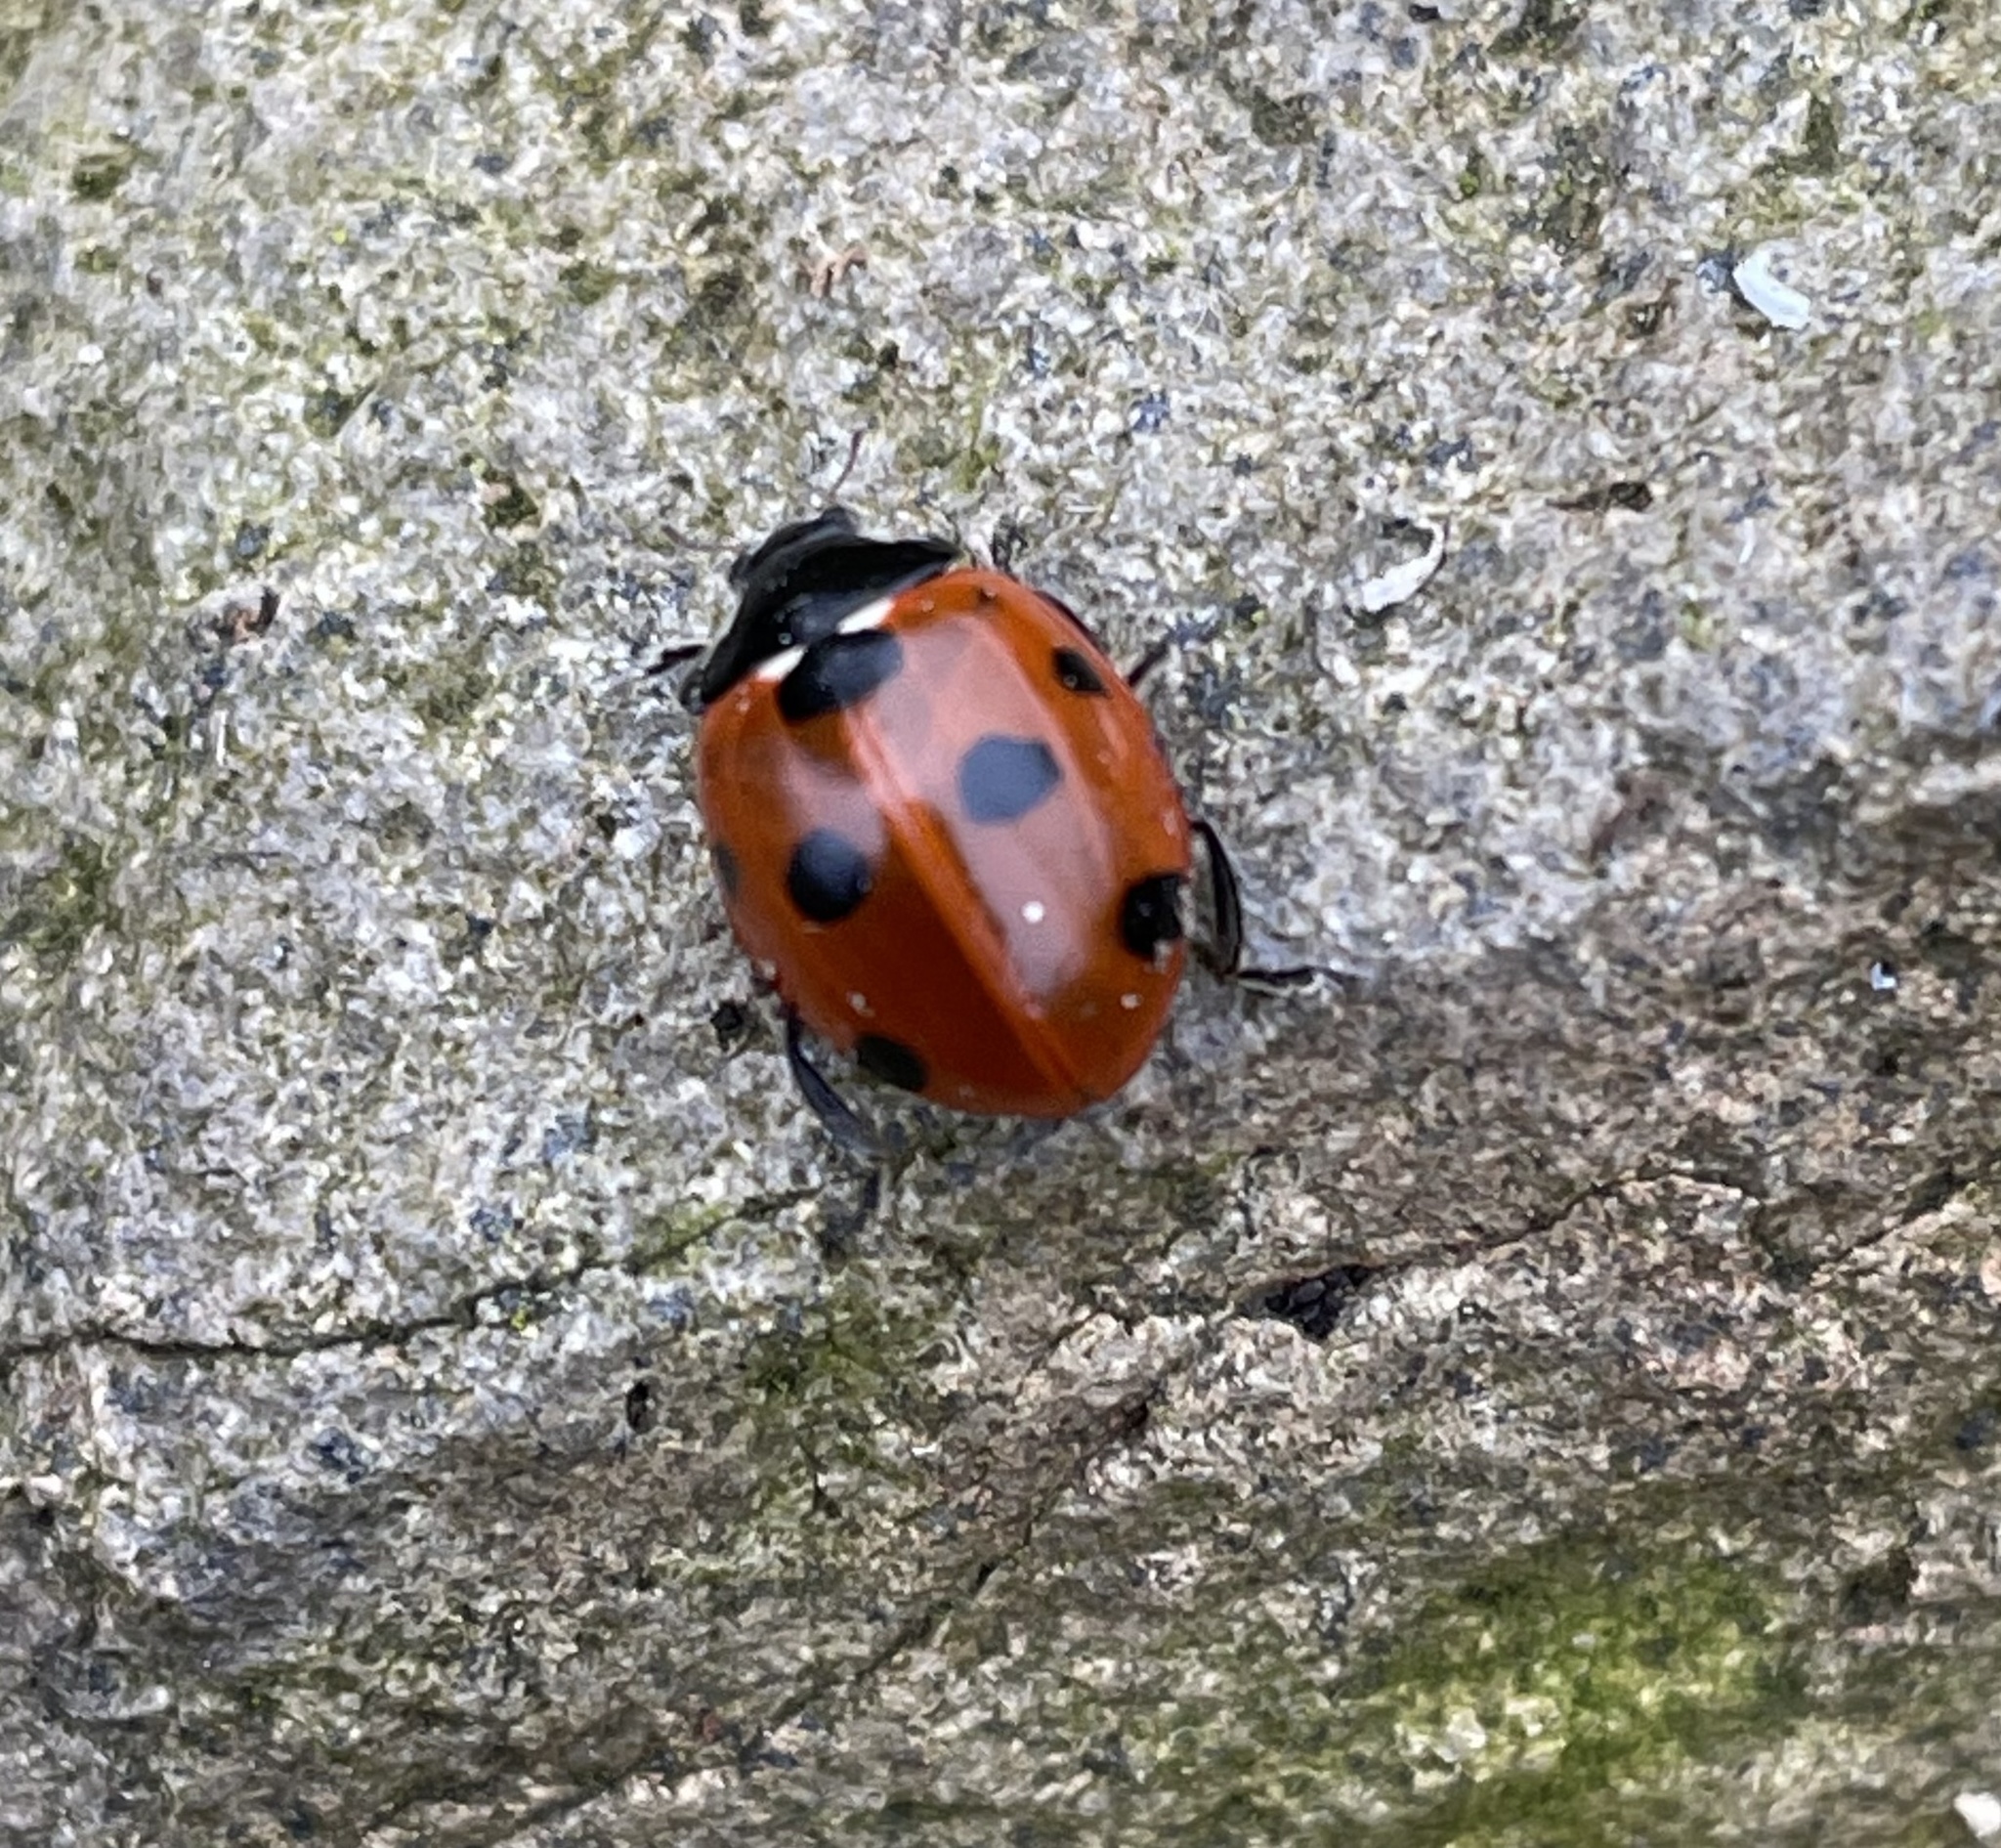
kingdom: Animalia
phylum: Arthropoda
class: Insecta
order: Coleoptera
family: Coccinellidae
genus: Coccinella
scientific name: Coccinella septempunctata
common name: Sevenspotted lady beetle
